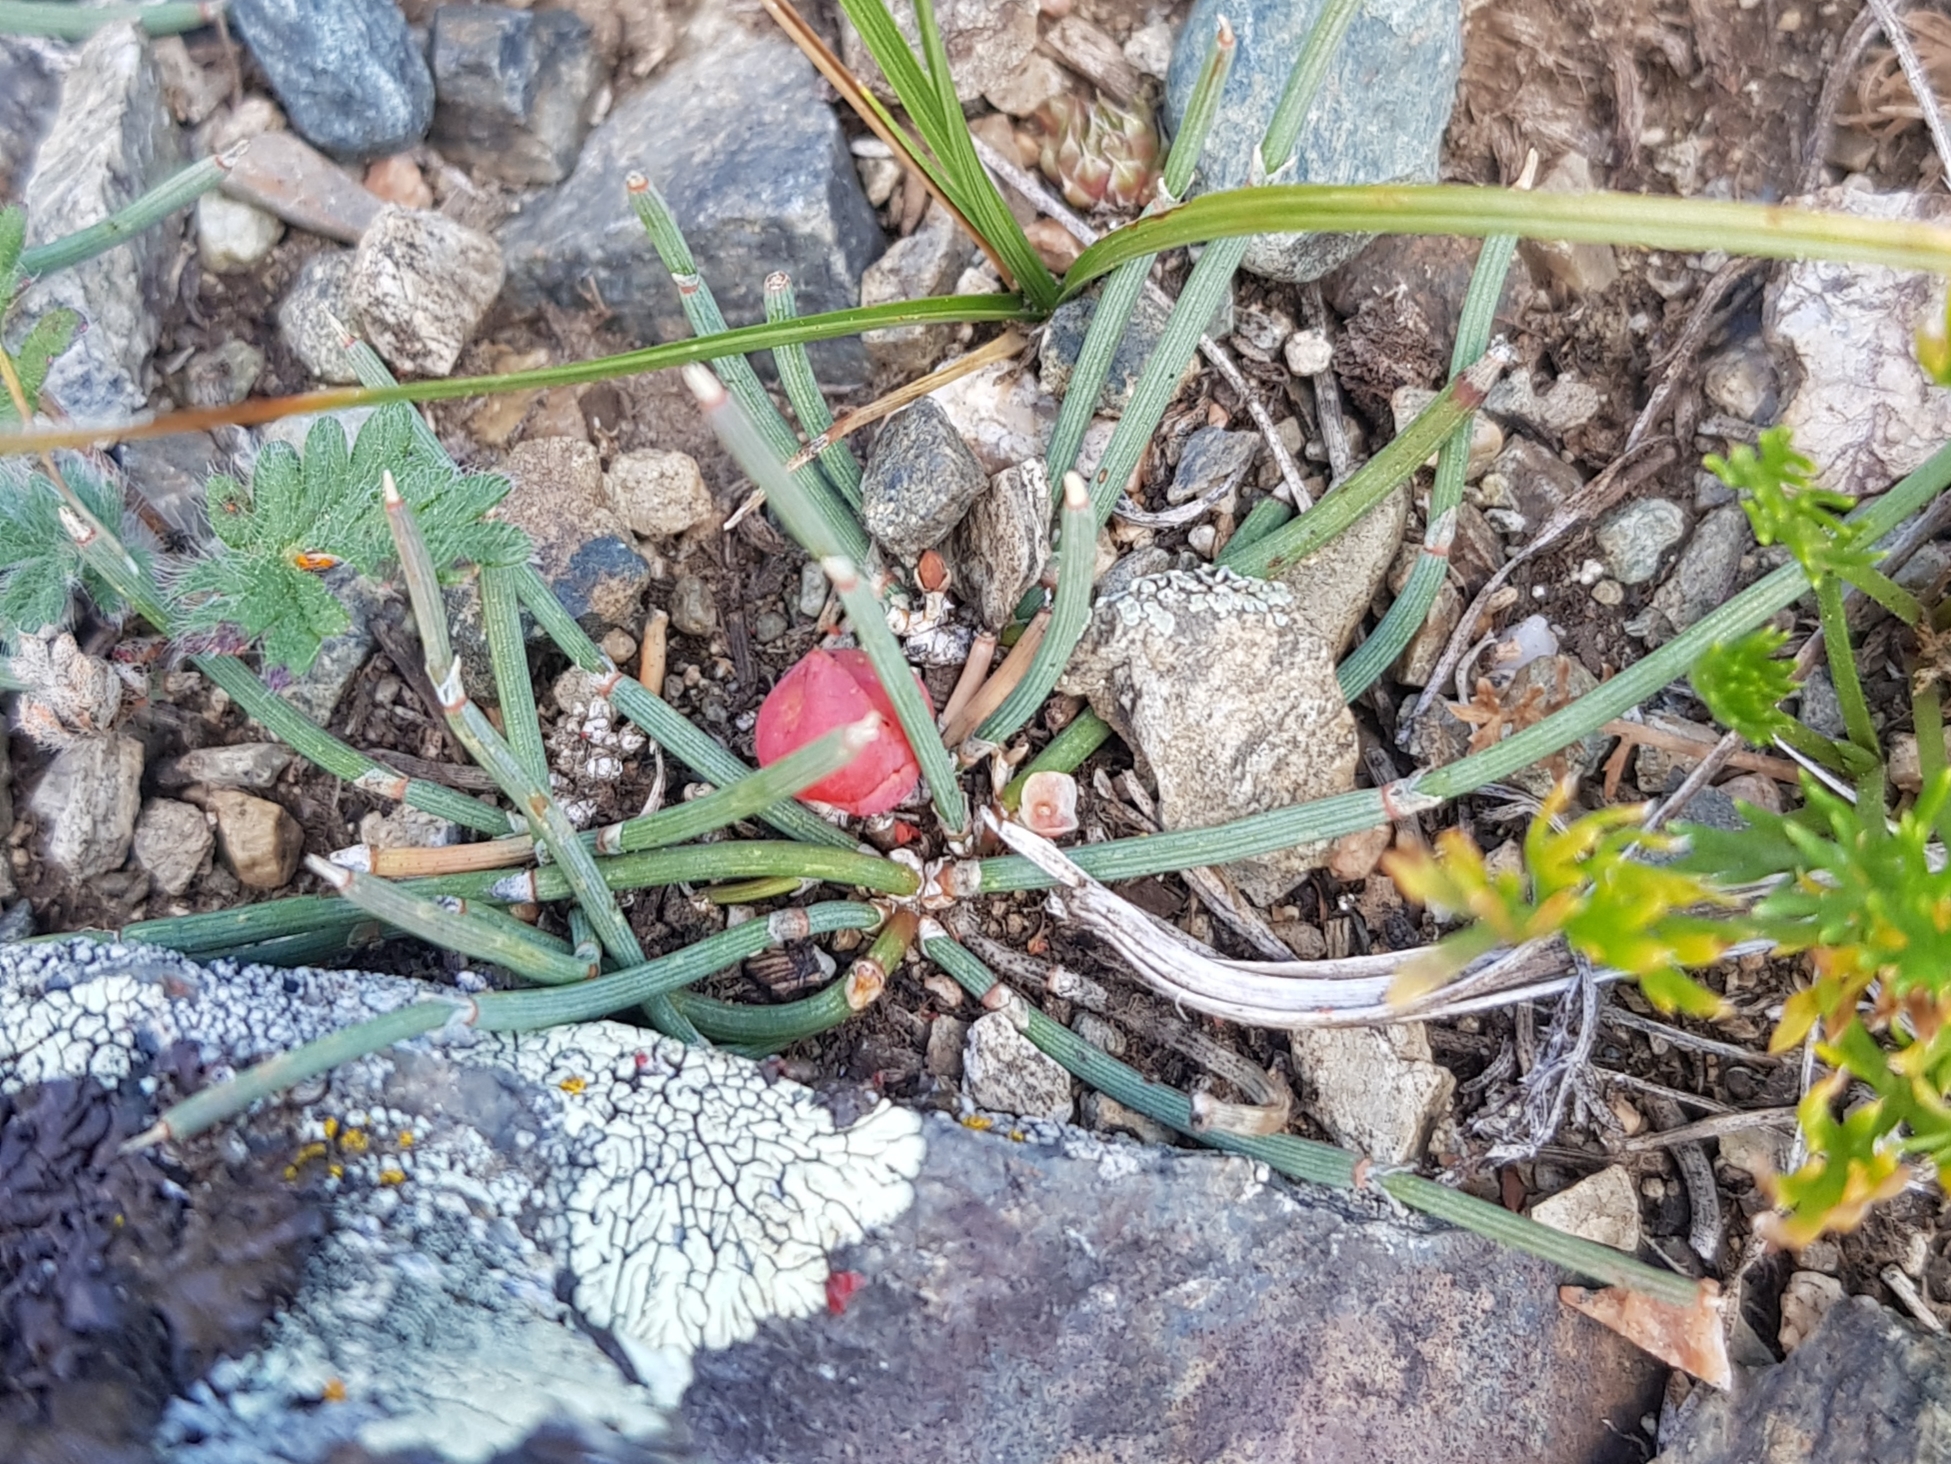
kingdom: Plantae
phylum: Tracheophyta
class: Gnetopsida
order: Ephedrales
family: Ephedraceae
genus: Ephedra
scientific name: Ephedra monosperma
